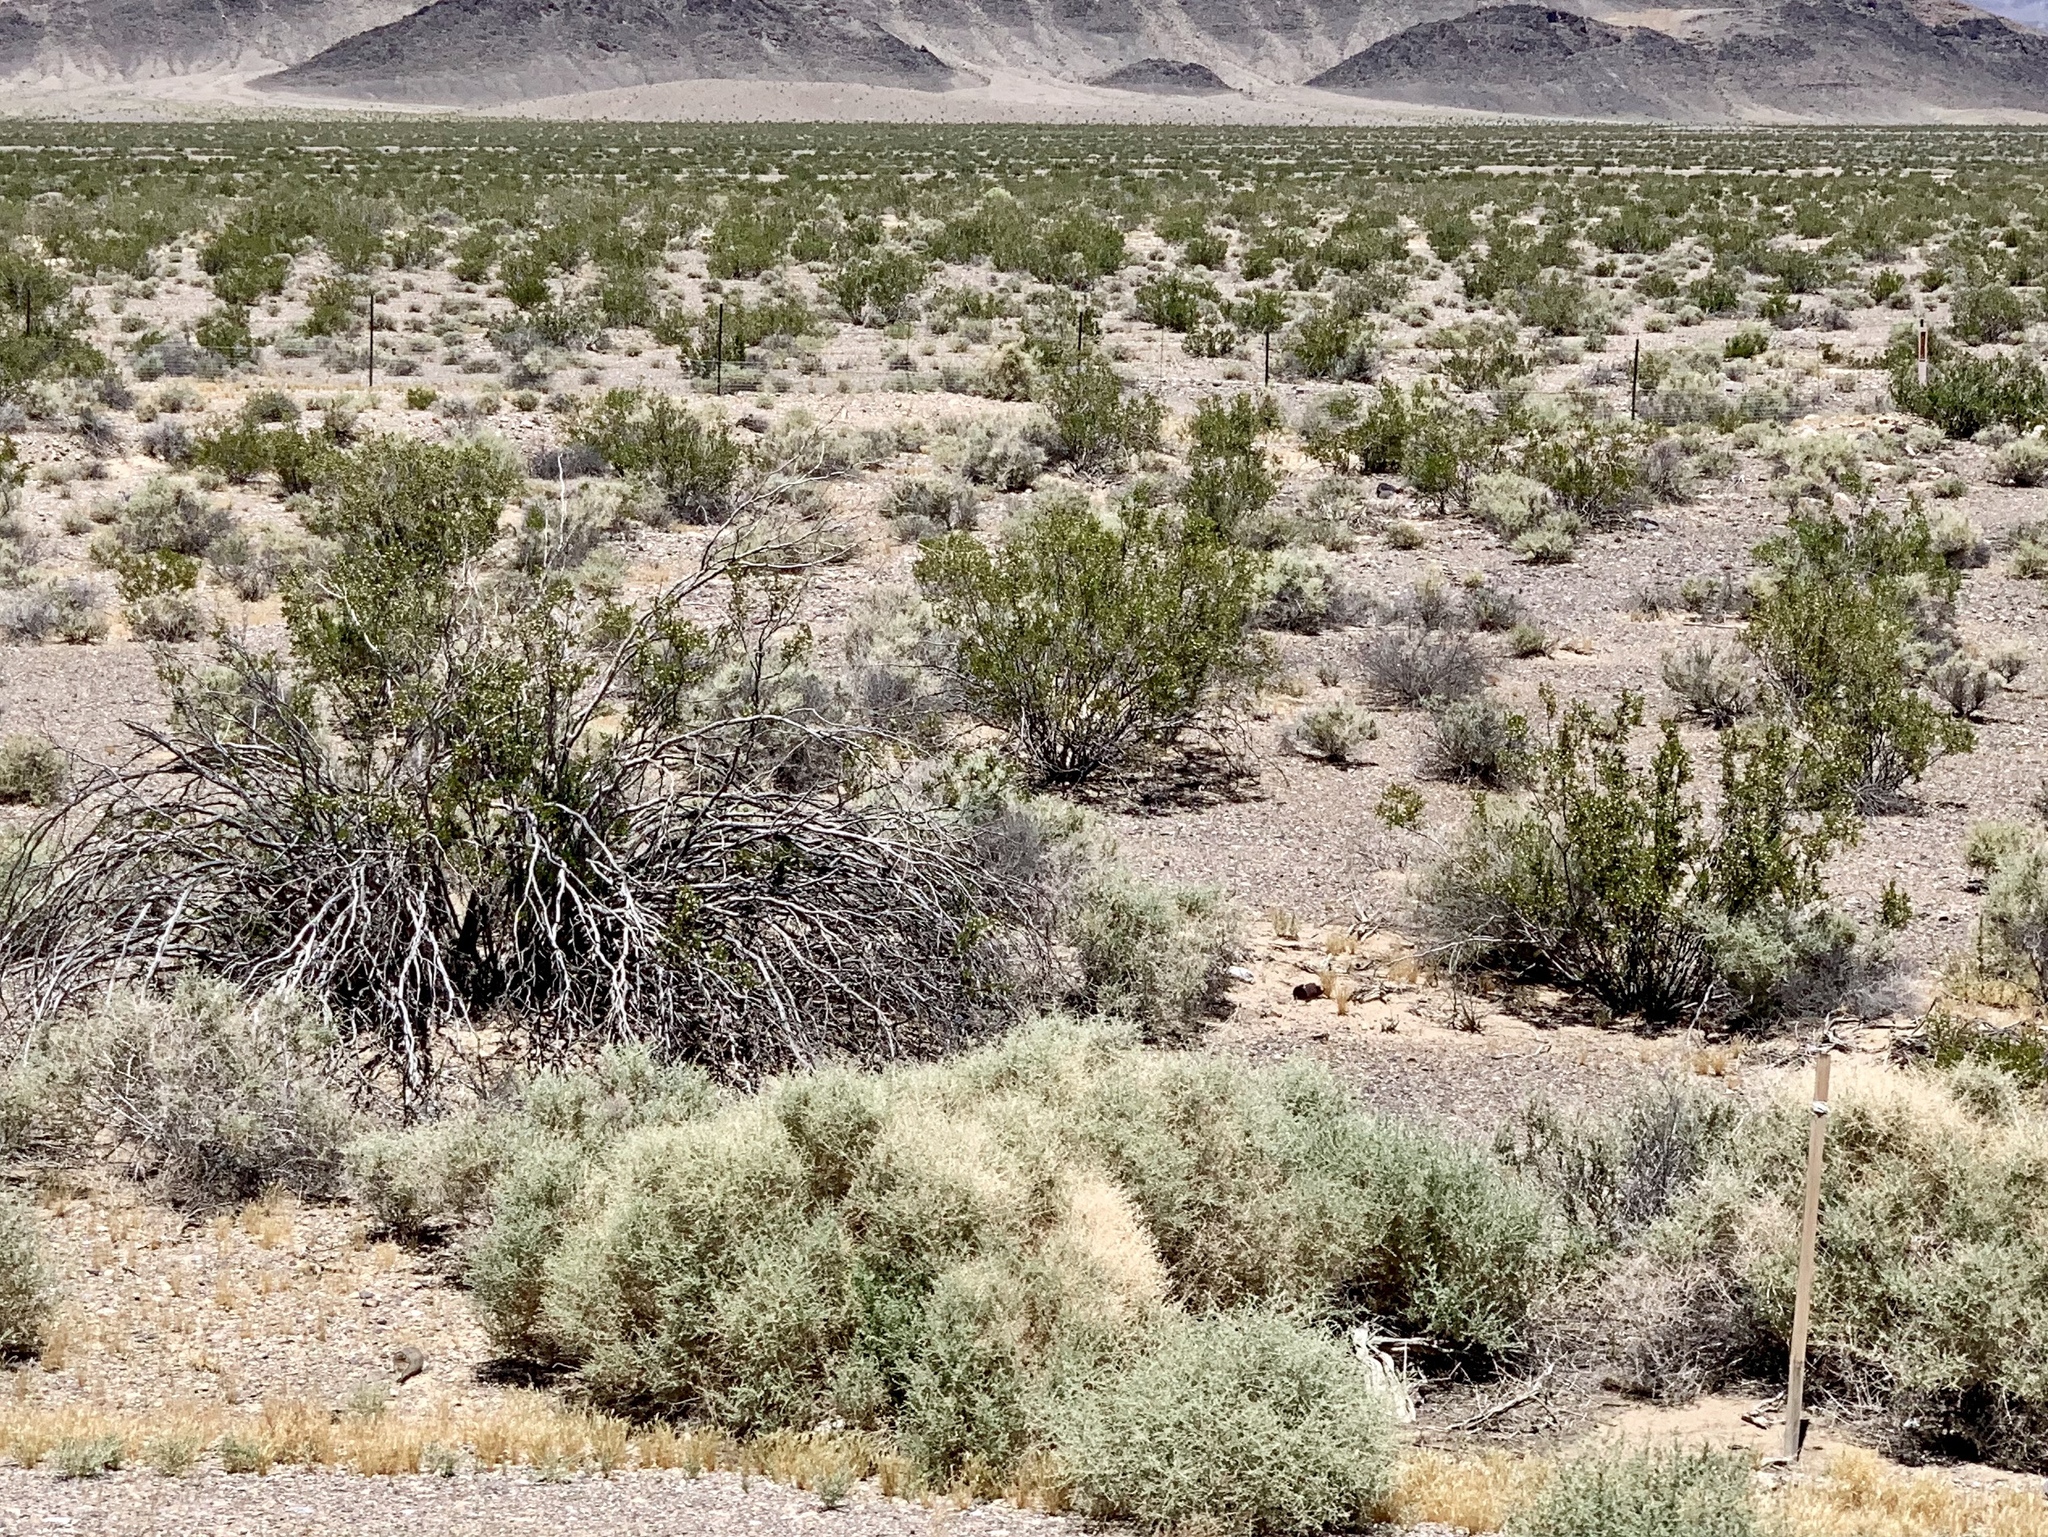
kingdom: Plantae
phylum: Tracheophyta
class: Magnoliopsida
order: Zygophyllales
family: Zygophyllaceae
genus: Larrea
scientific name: Larrea tridentata
